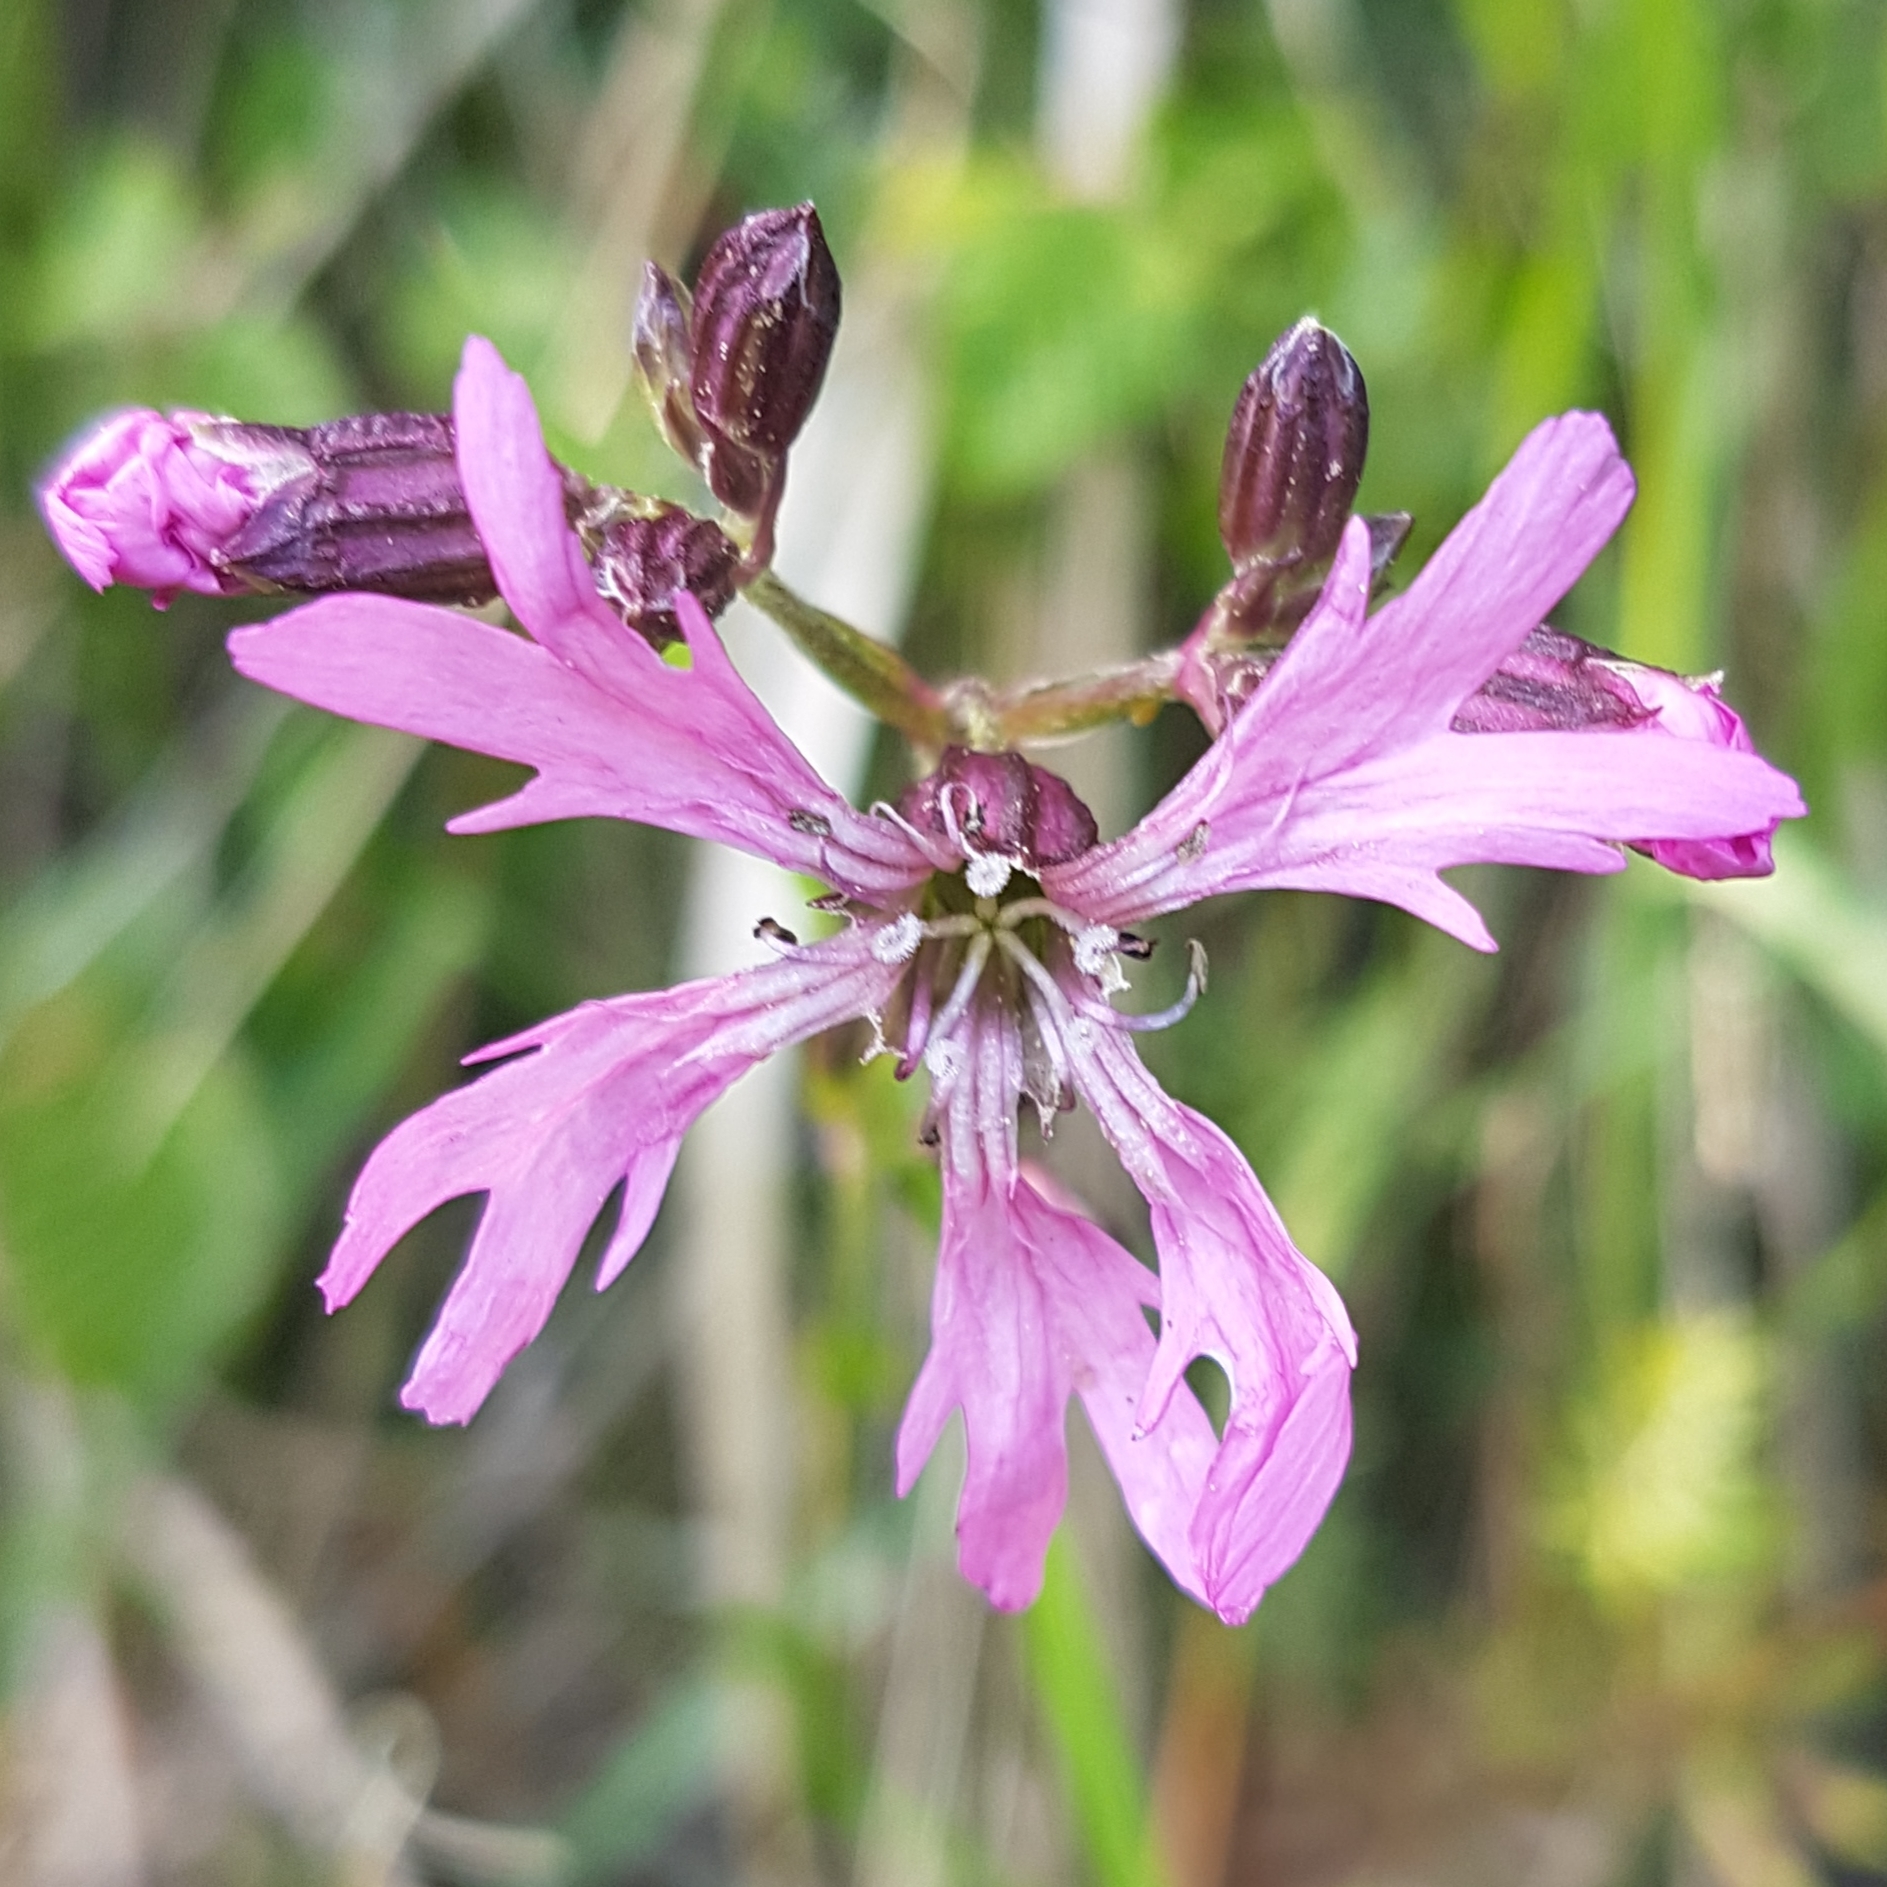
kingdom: Plantae
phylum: Tracheophyta
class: Magnoliopsida
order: Caryophyllales
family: Caryophyllaceae
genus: Silene
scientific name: Silene flos-cuculi
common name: Ragged-robin
